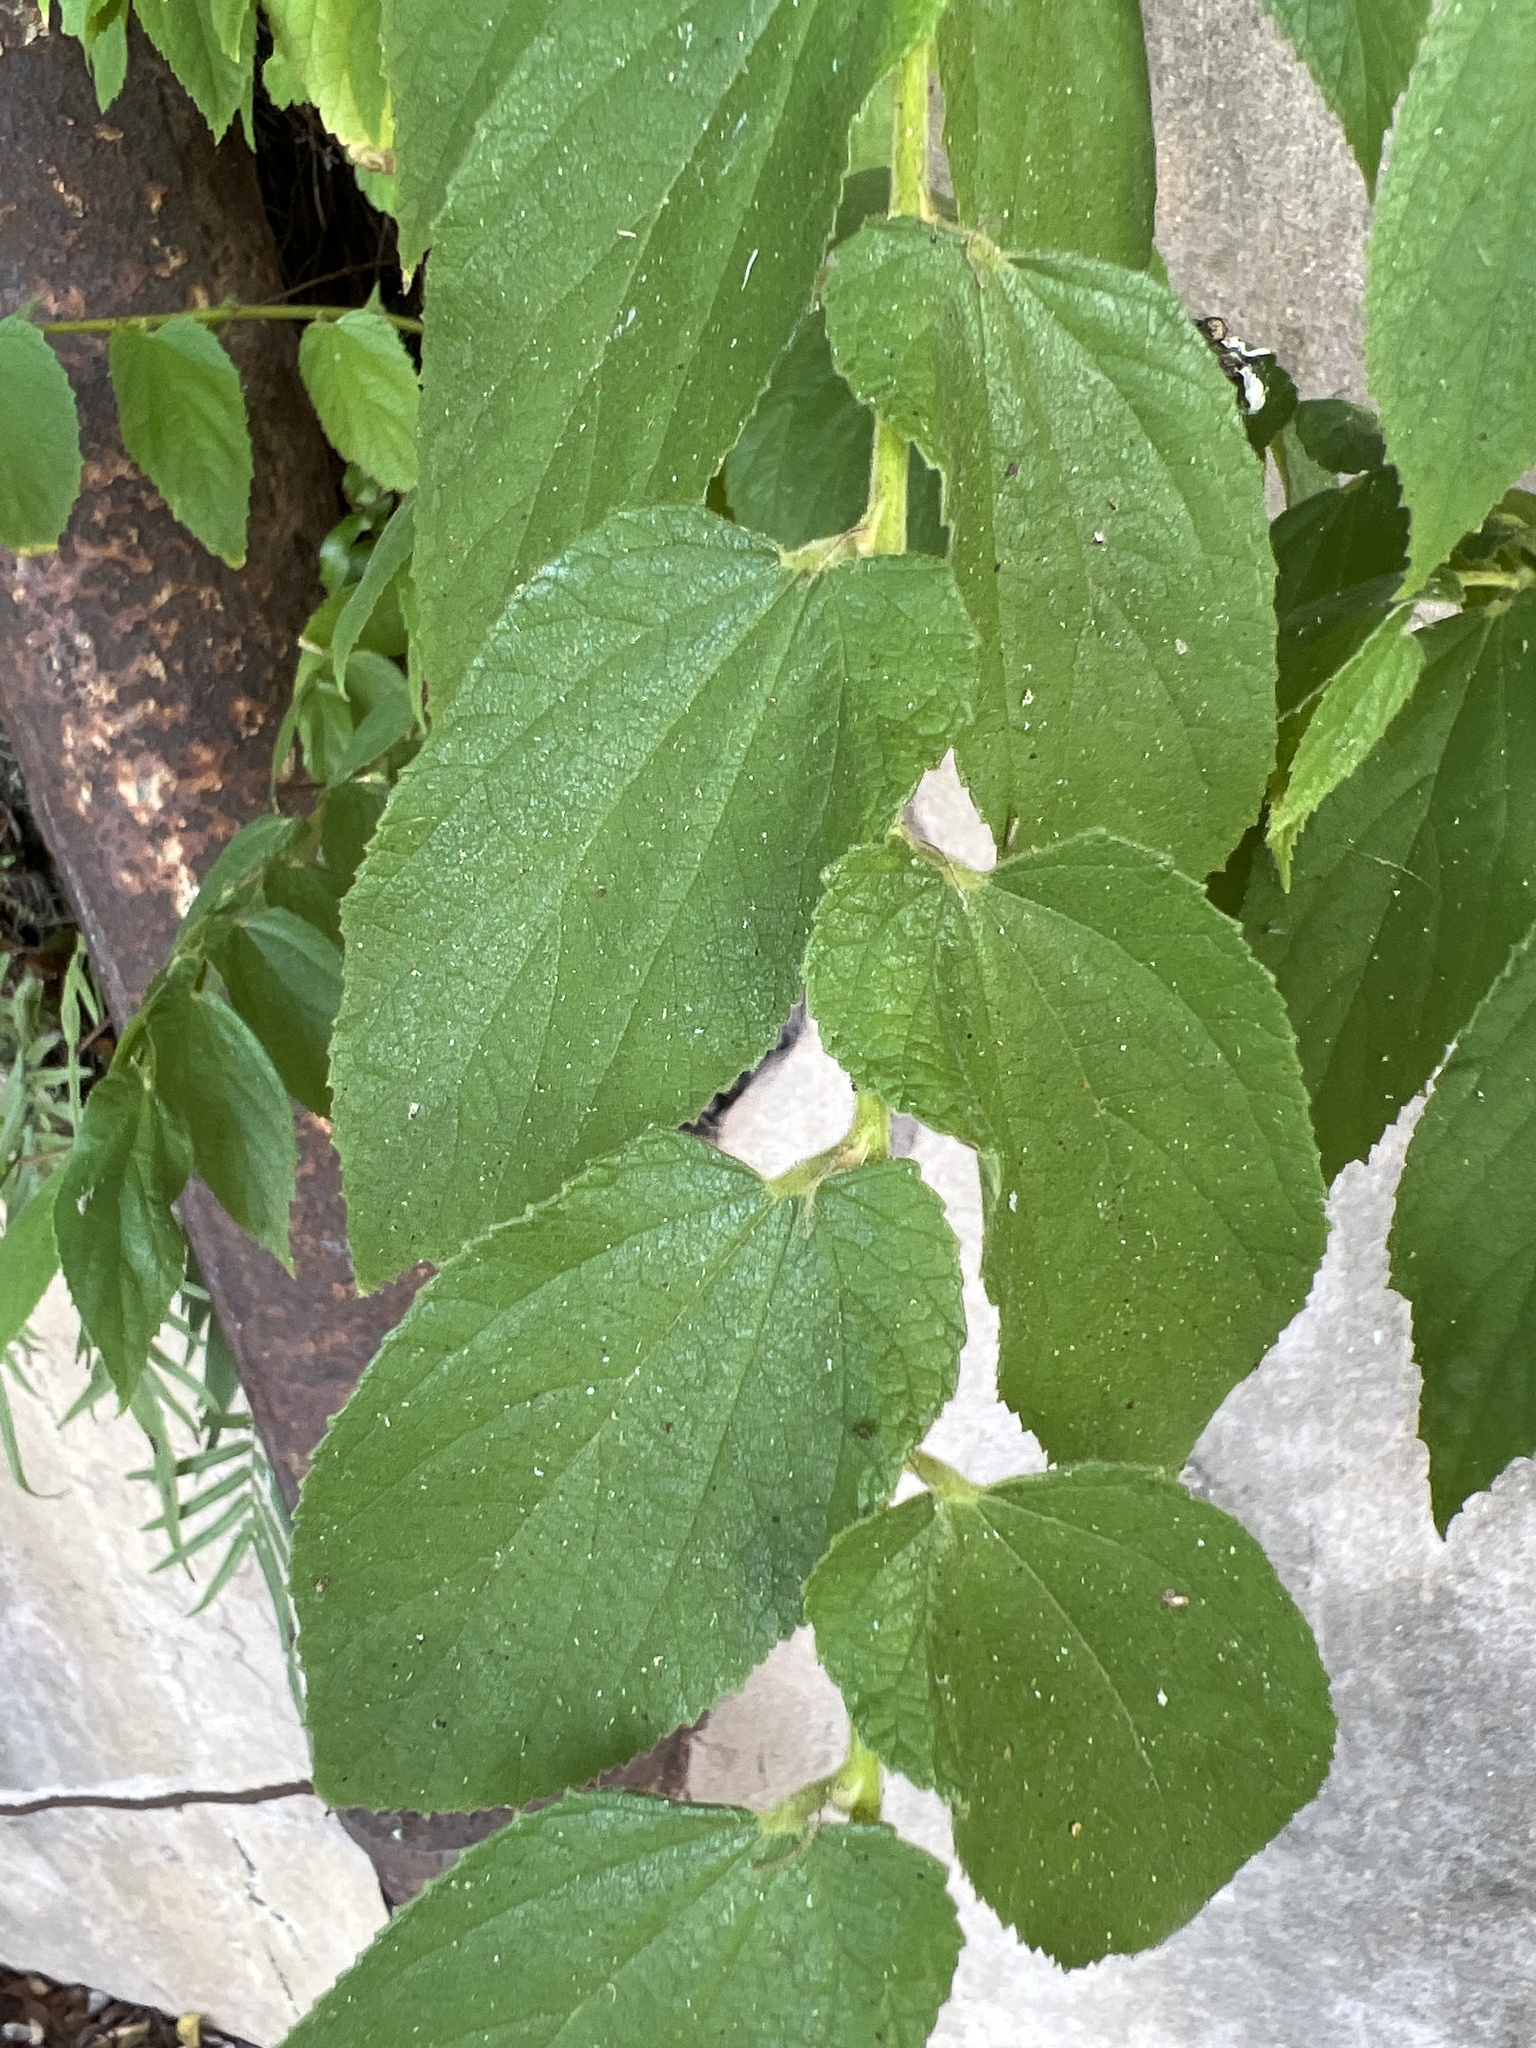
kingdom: Plantae
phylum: Tracheophyta
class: Magnoliopsida
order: Malvales
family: Muntingiaceae
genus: Muntingia
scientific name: Muntingia calabura
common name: Strawberrytree
